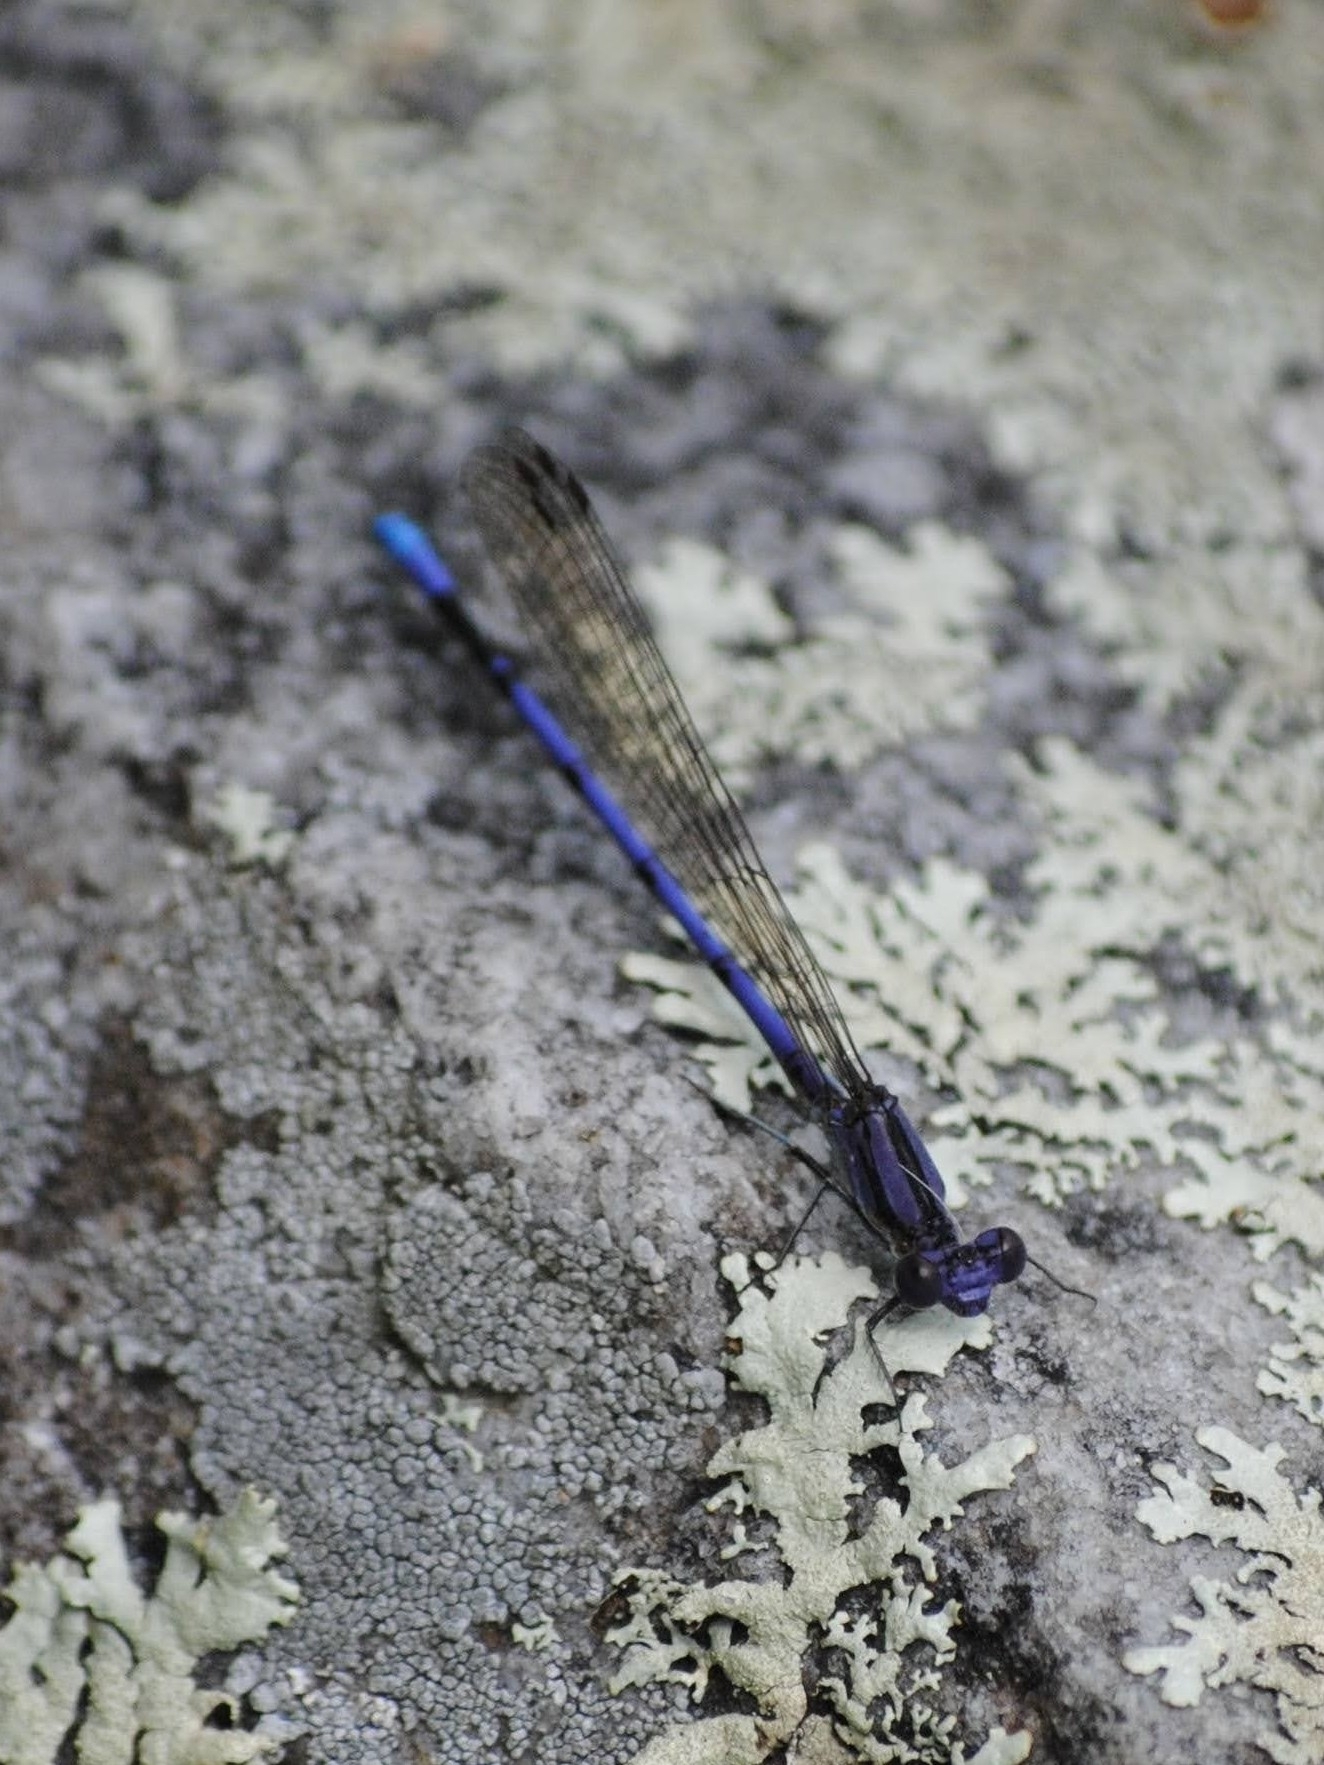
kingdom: Animalia
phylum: Arthropoda
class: Insecta
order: Odonata
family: Coenagrionidae
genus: Argia
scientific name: Argia fumipennis
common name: Variable dancer
